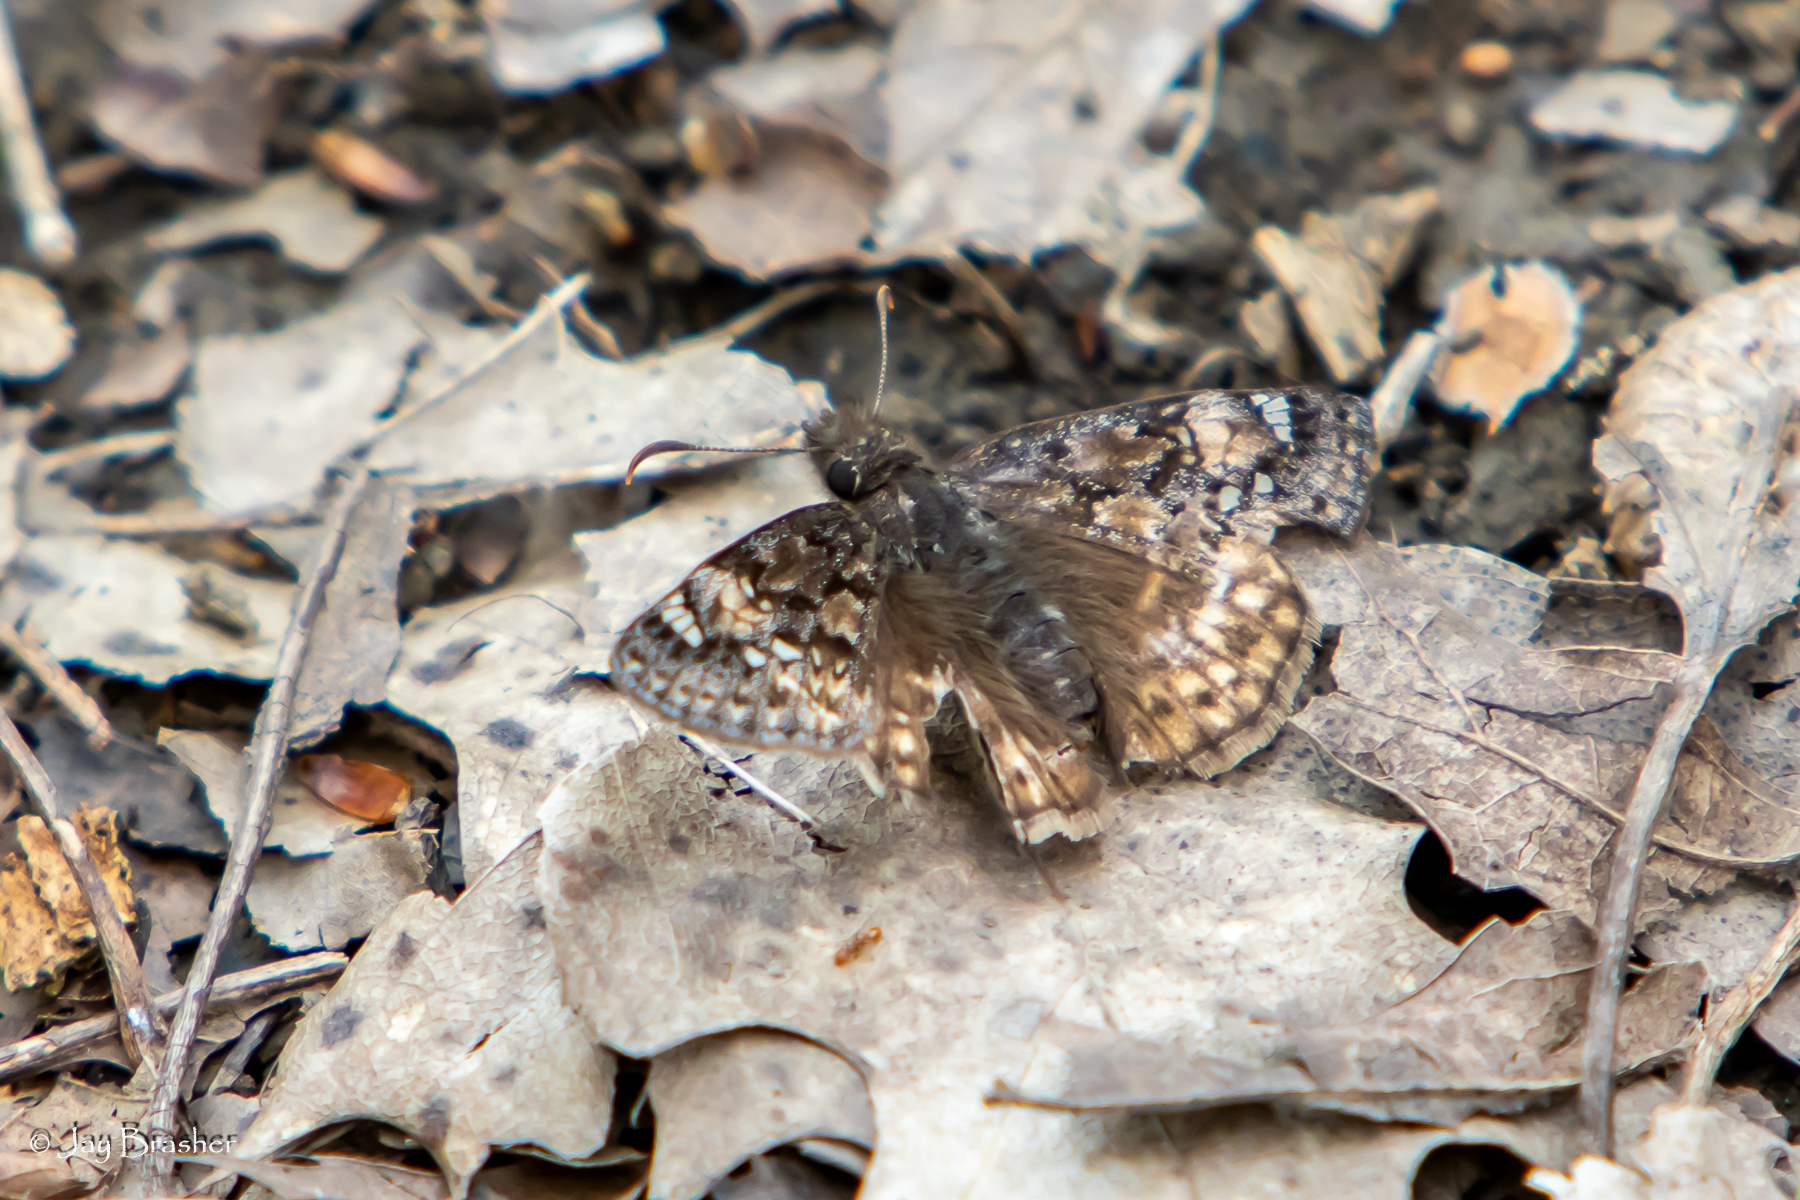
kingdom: Animalia
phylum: Arthropoda
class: Insecta
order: Lepidoptera
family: Hesperiidae
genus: Erynnis
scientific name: Erynnis juvenalis
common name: Juvenal's duskywing
